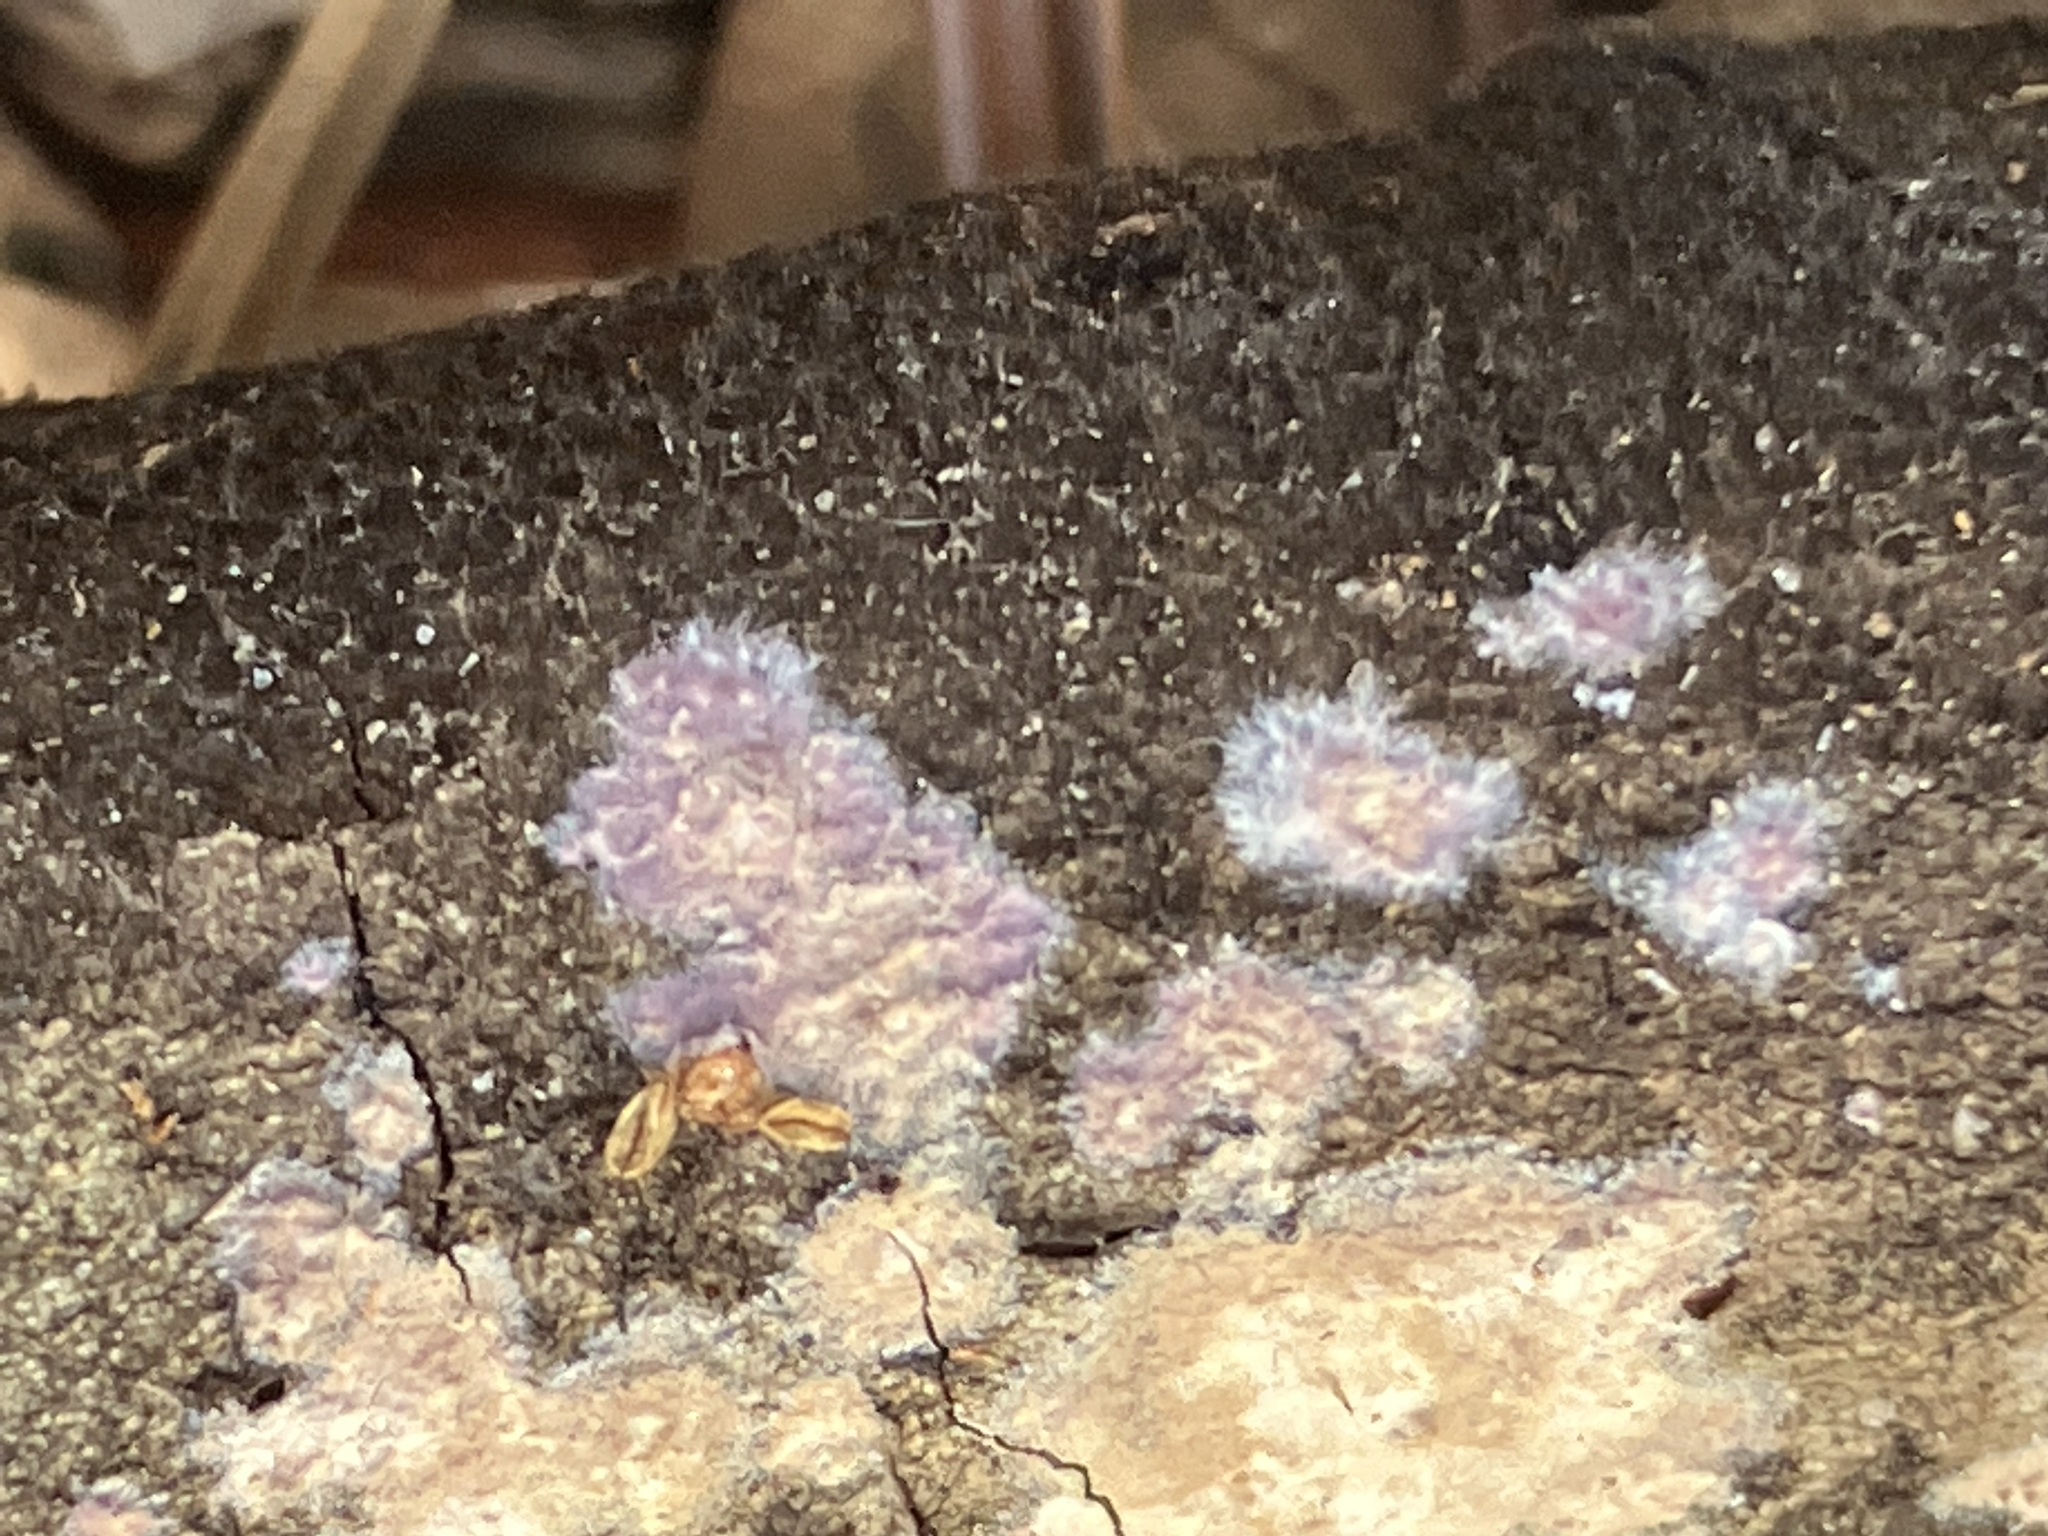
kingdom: Fungi
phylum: Basidiomycota
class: Agaricomycetes
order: Polyporales
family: Phanerochaetaceae
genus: Phlebiopsis
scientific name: Phlebiopsis crassa
